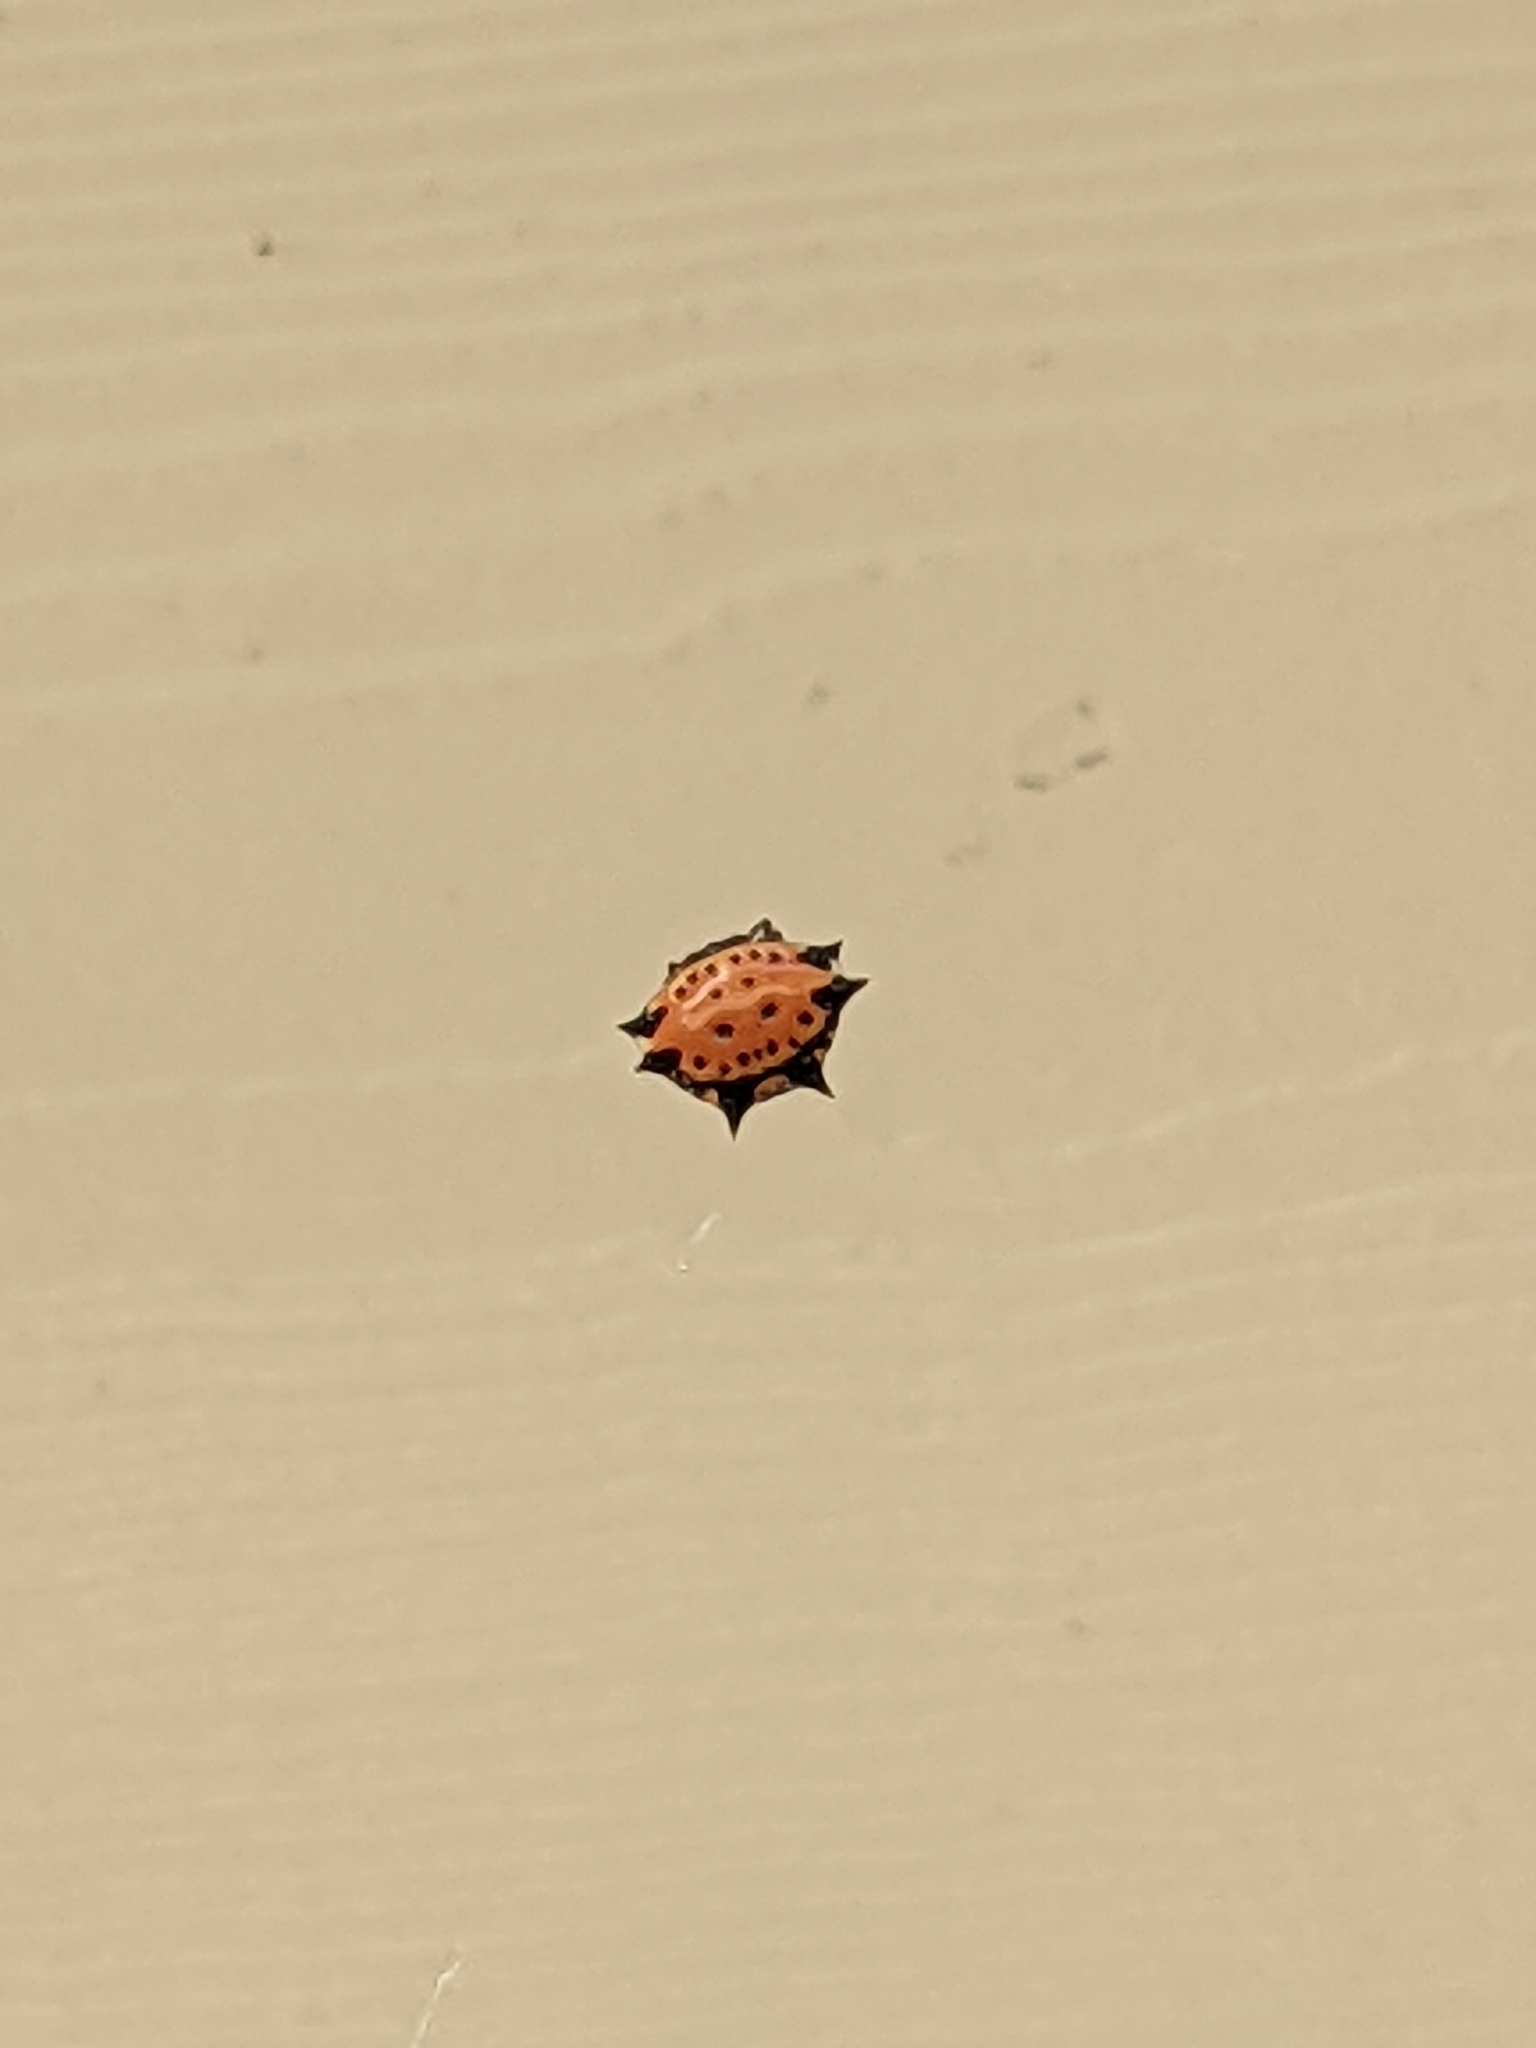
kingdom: Animalia
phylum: Arthropoda
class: Arachnida
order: Araneae
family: Araneidae
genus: Gasteracantha
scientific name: Gasteracantha cancriformis
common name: Orb weavers
